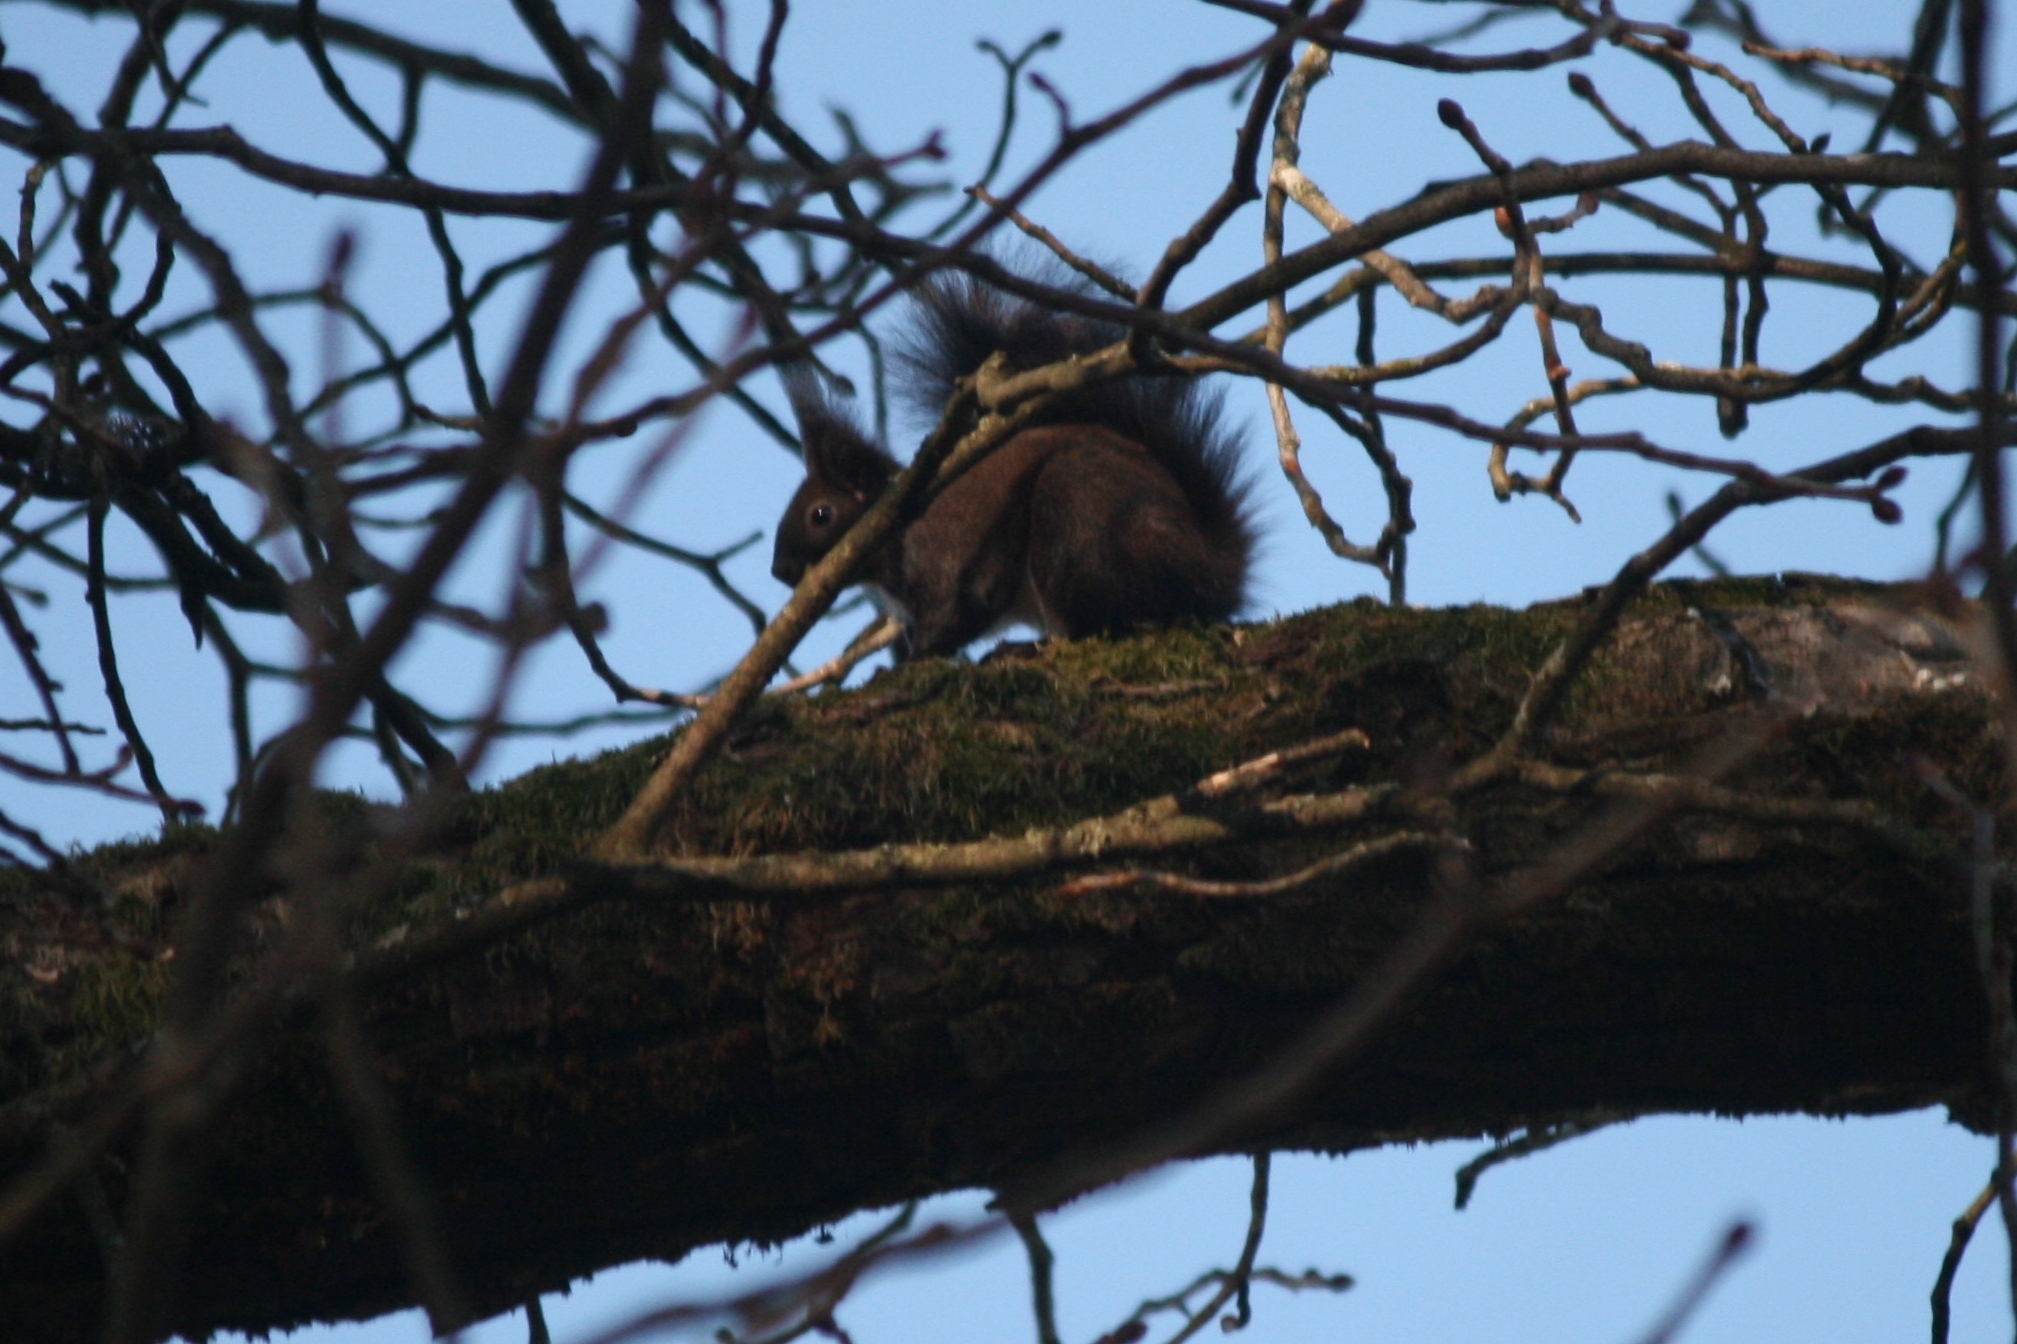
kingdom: Animalia
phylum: Chordata
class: Mammalia
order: Rodentia
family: Sciuridae
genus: Sciurus
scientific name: Sciurus vulgaris
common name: Eurasian red squirrel
